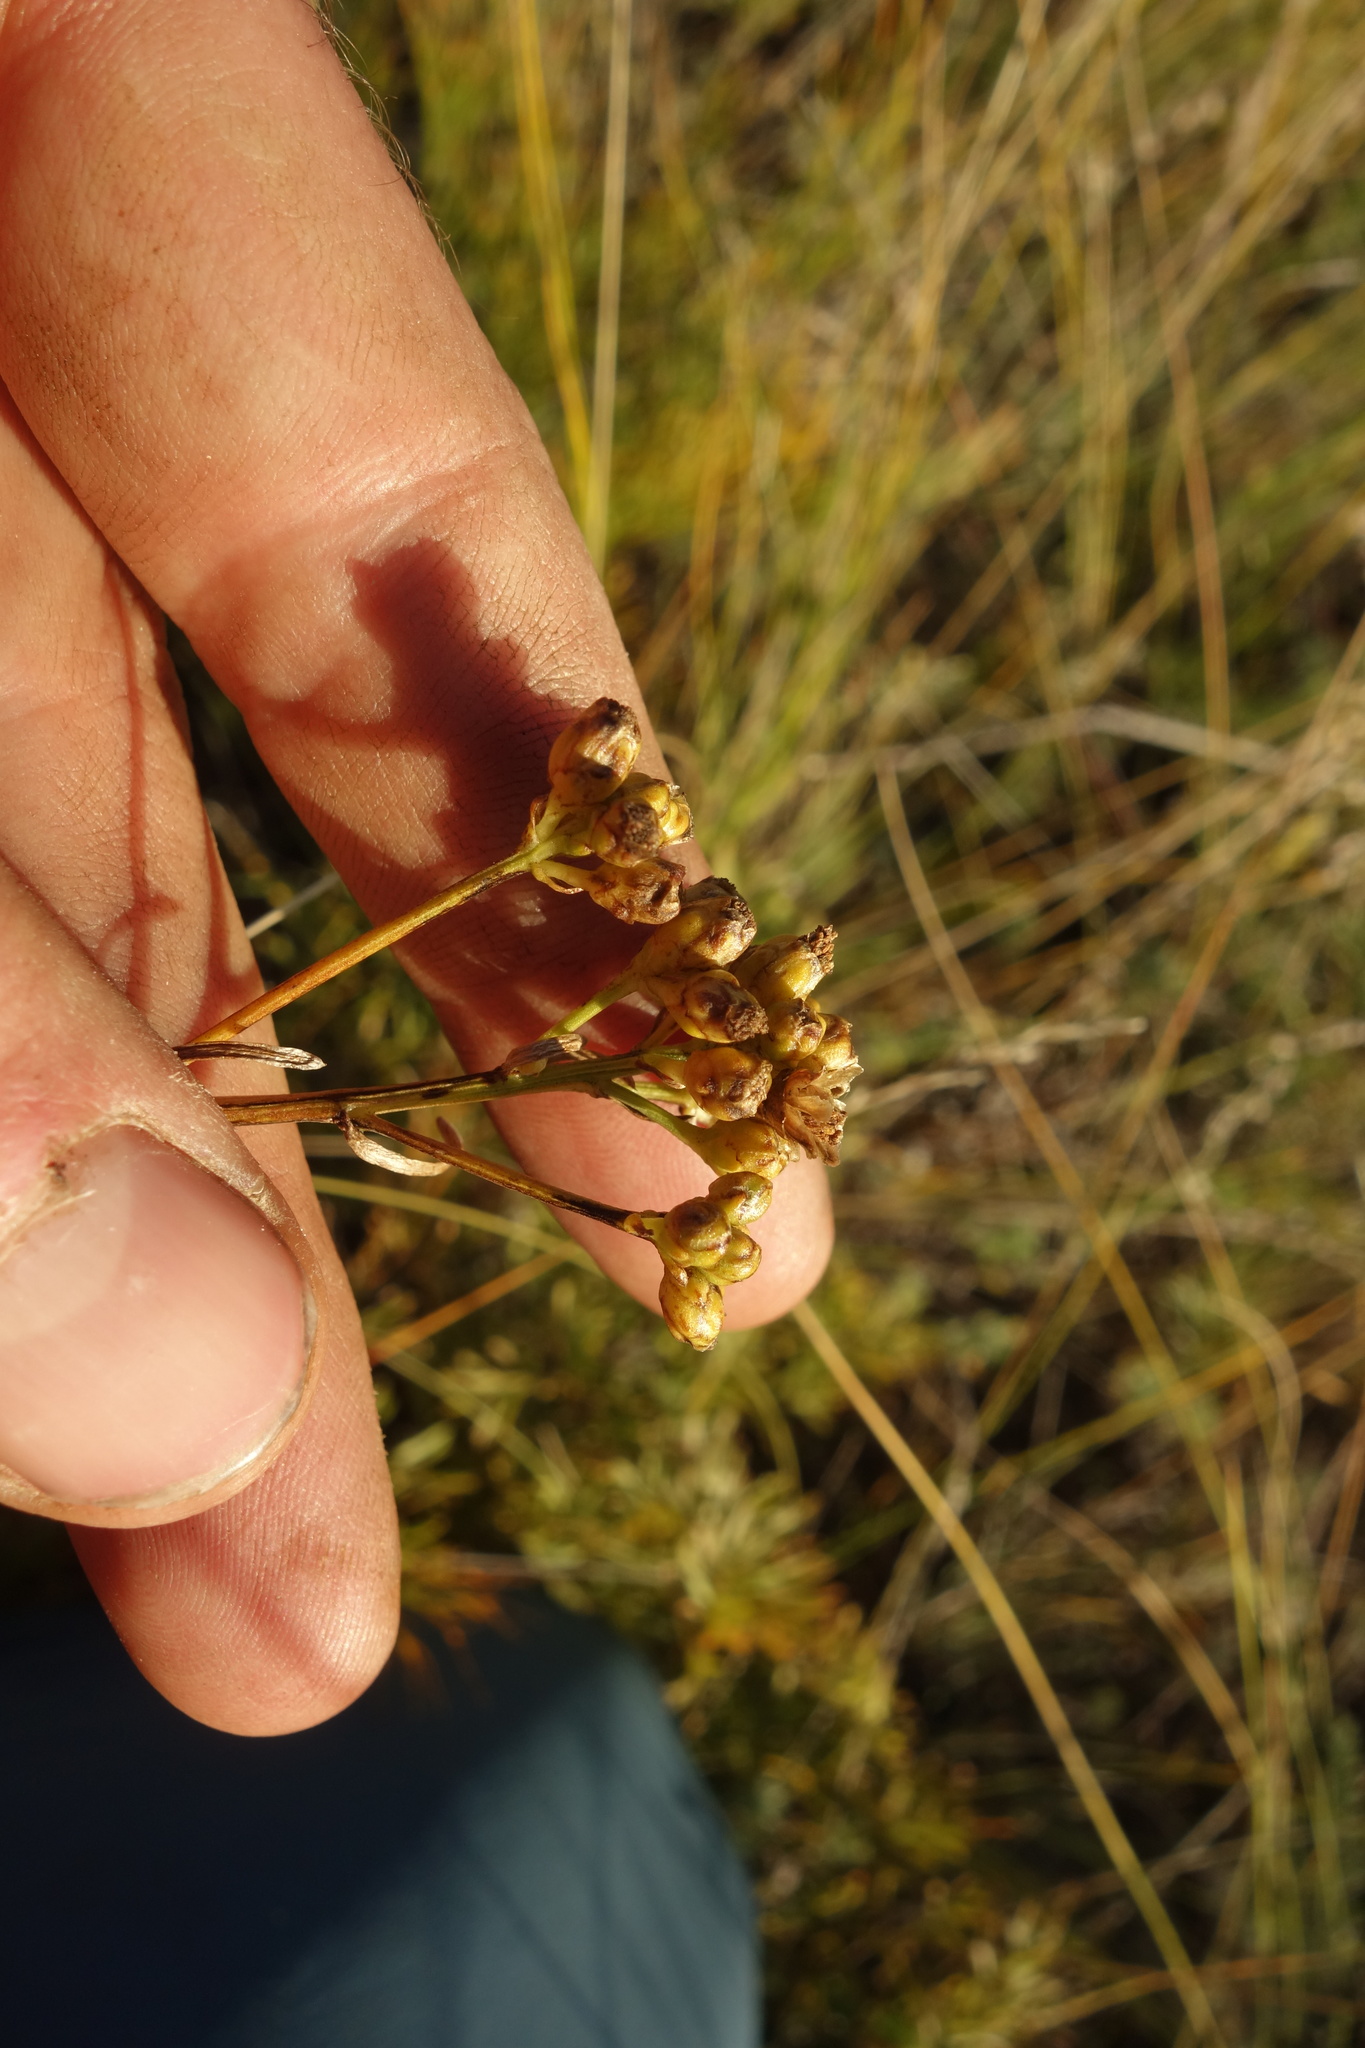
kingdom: Plantae
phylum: Tracheophyta
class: Magnoliopsida
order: Asterales
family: Asteraceae
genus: Filifolium
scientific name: Filifolium sibiricum
